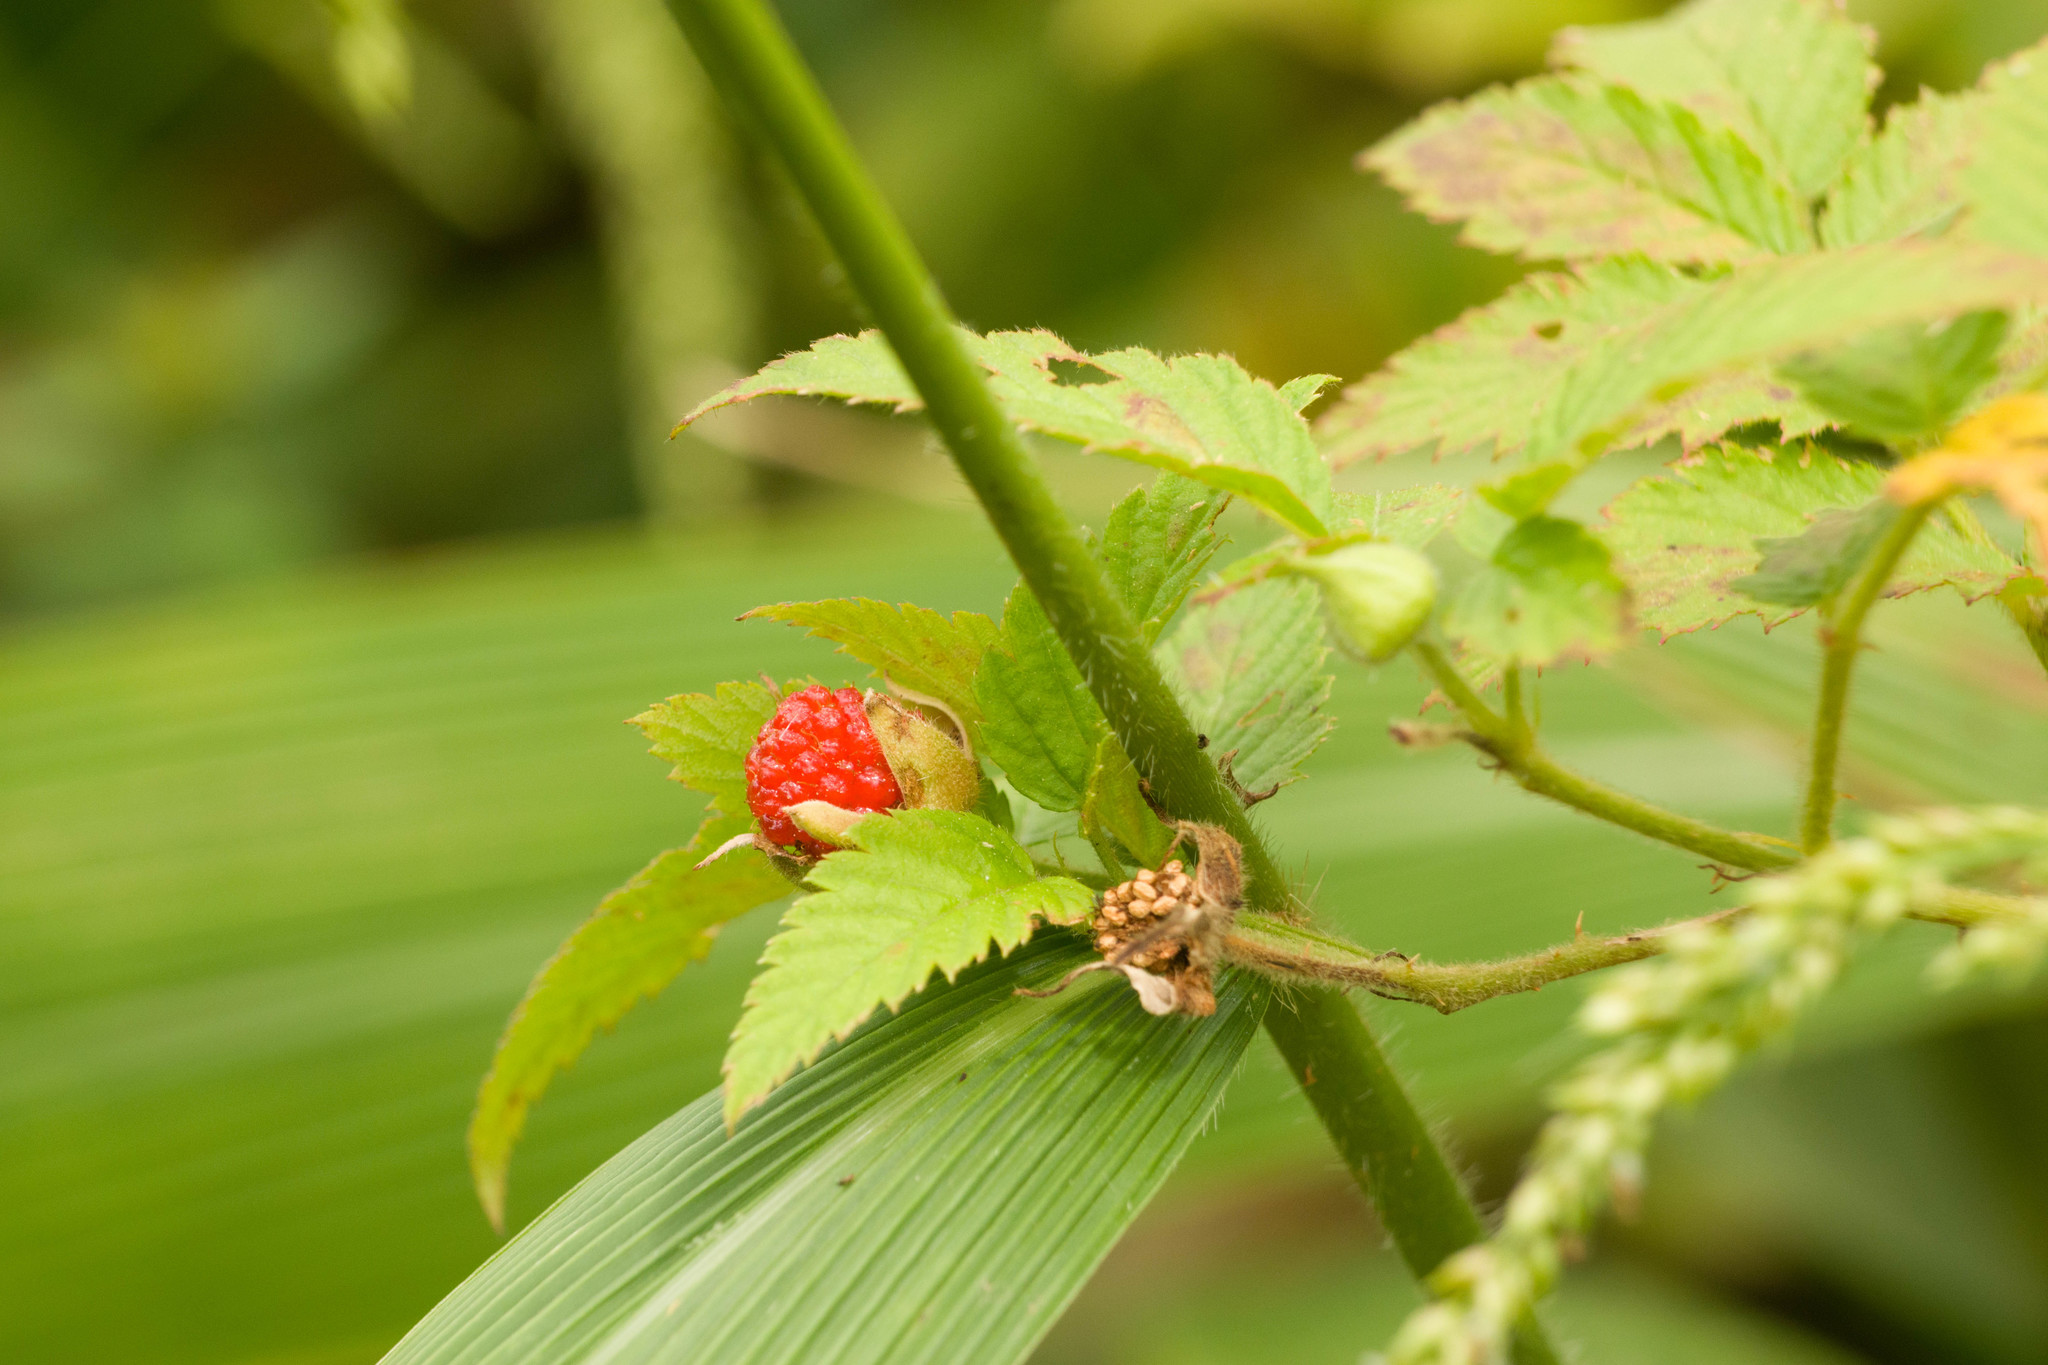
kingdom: Plantae
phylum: Tracheophyta
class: Magnoliopsida
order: Rosales
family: Rosaceae
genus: Rubus
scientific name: Rubus rosifolius
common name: Roseleaf raspberry
